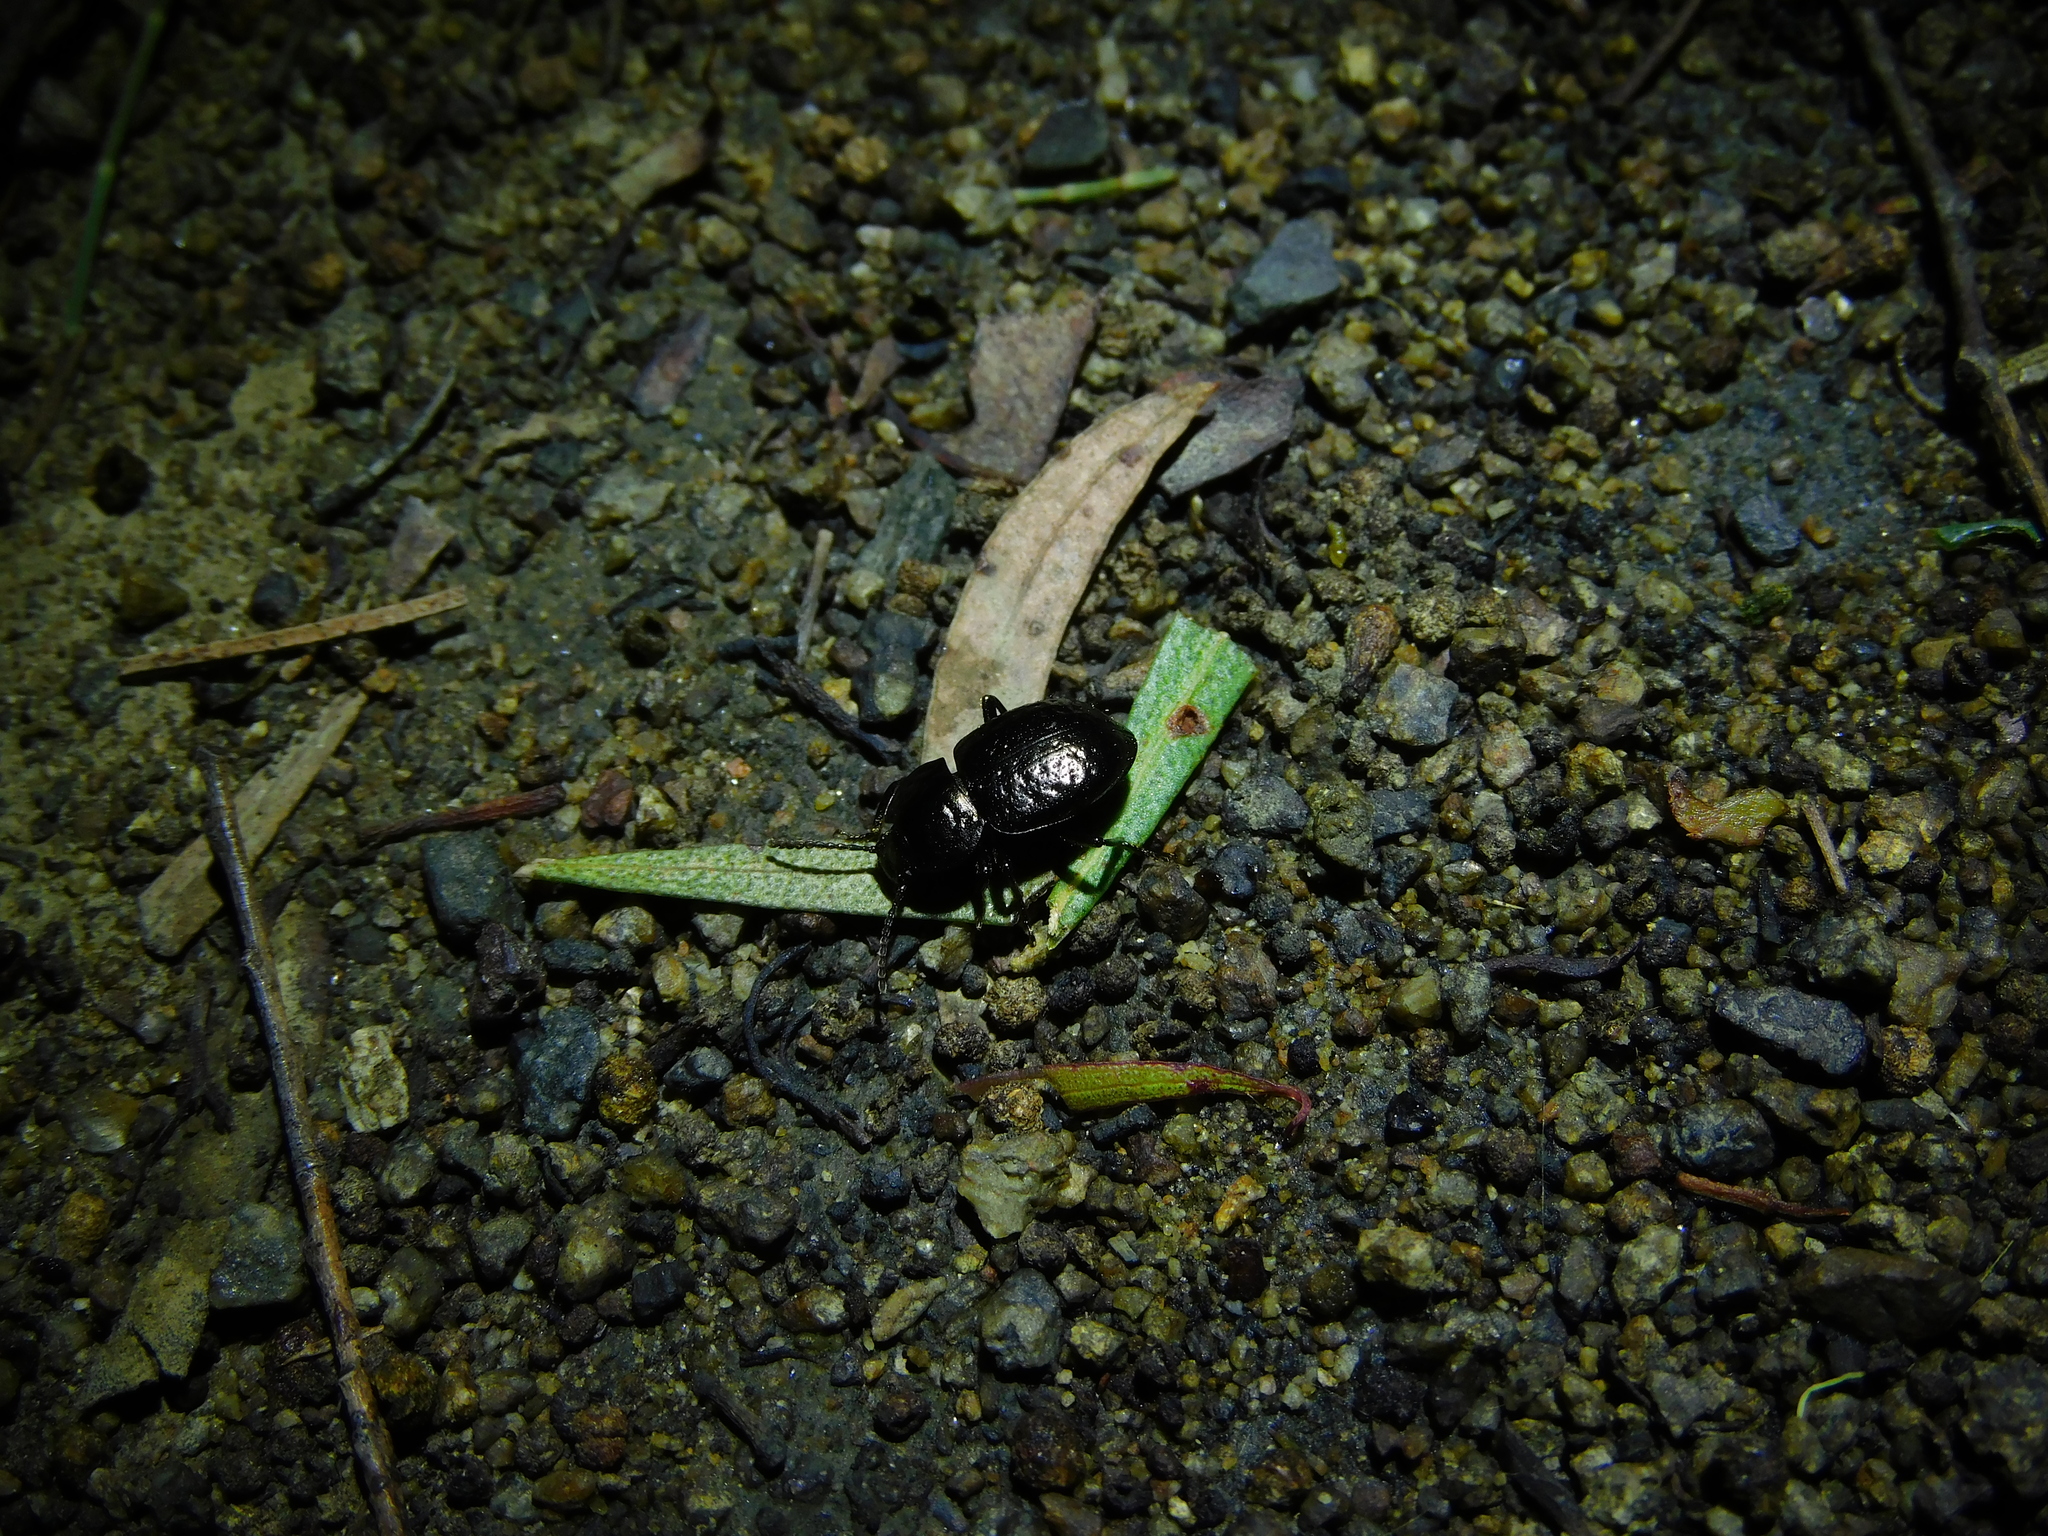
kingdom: Animalia
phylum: Arthropoda
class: Insecta
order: Coleoptera
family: Tenebrionidae
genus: Adelium
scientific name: Adelium abbreviatum
